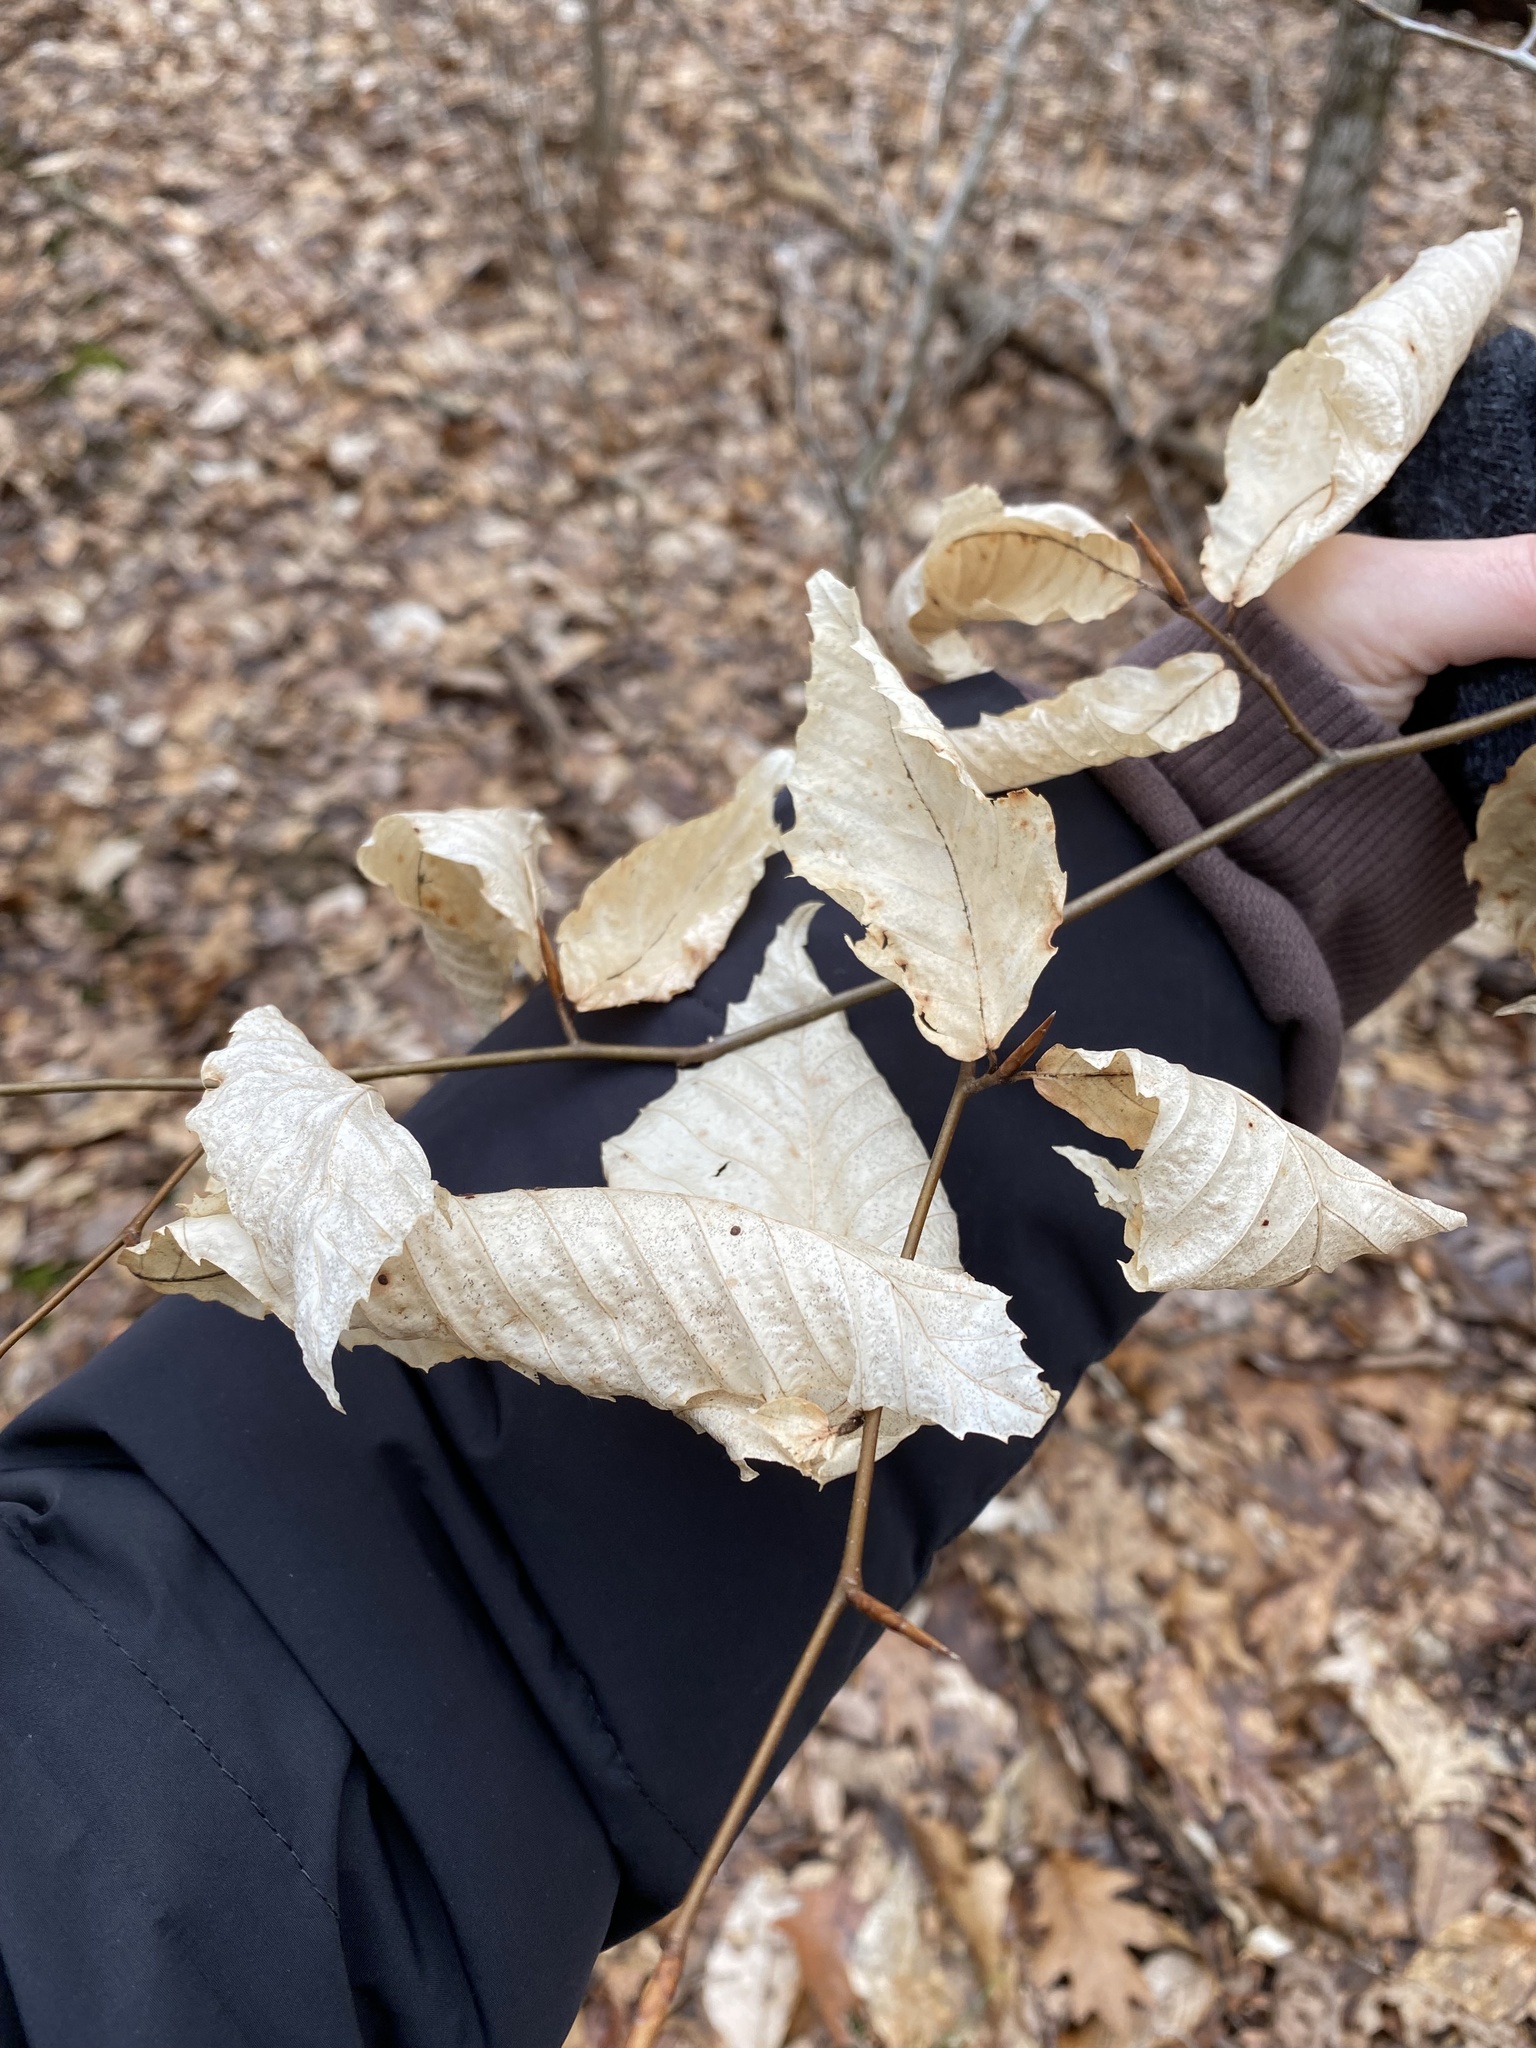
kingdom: Plantae
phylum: Tracheophyta
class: Magnoliopsida
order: Fagales
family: Fagaceae
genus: Fagus
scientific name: Fagus grandifolia
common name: American beech
